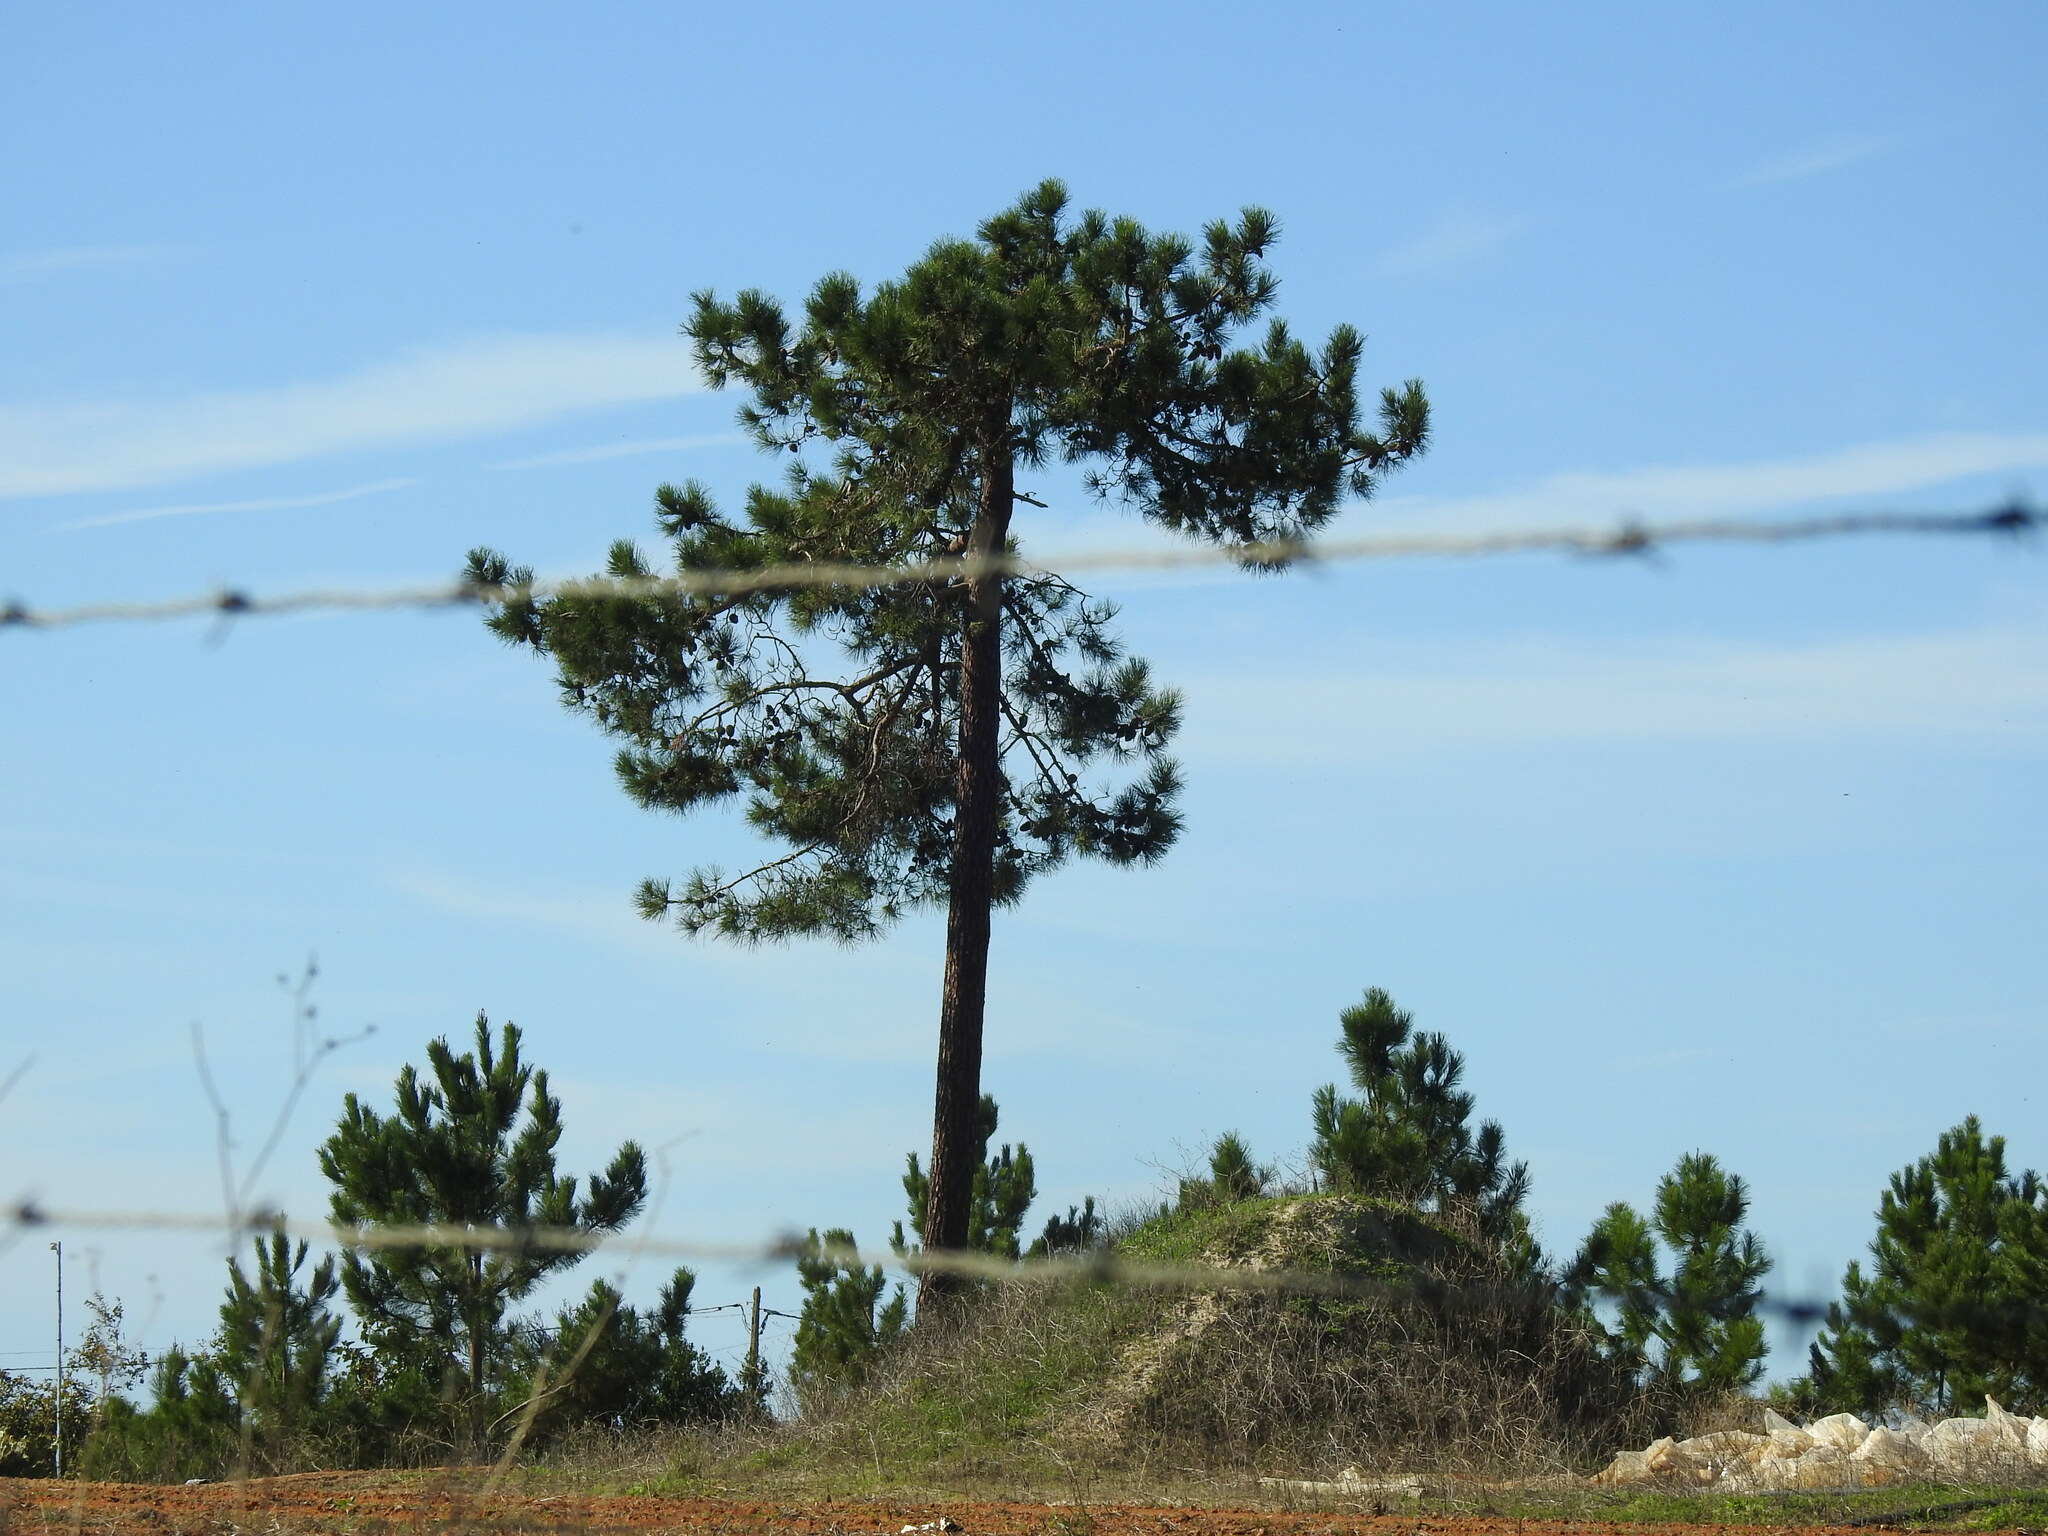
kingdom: Plantae
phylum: Tracheophyta
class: Pinopsida
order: Pinales
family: Pinaceae
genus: Pinus
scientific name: Pinus pinaster
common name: Maritime pine
